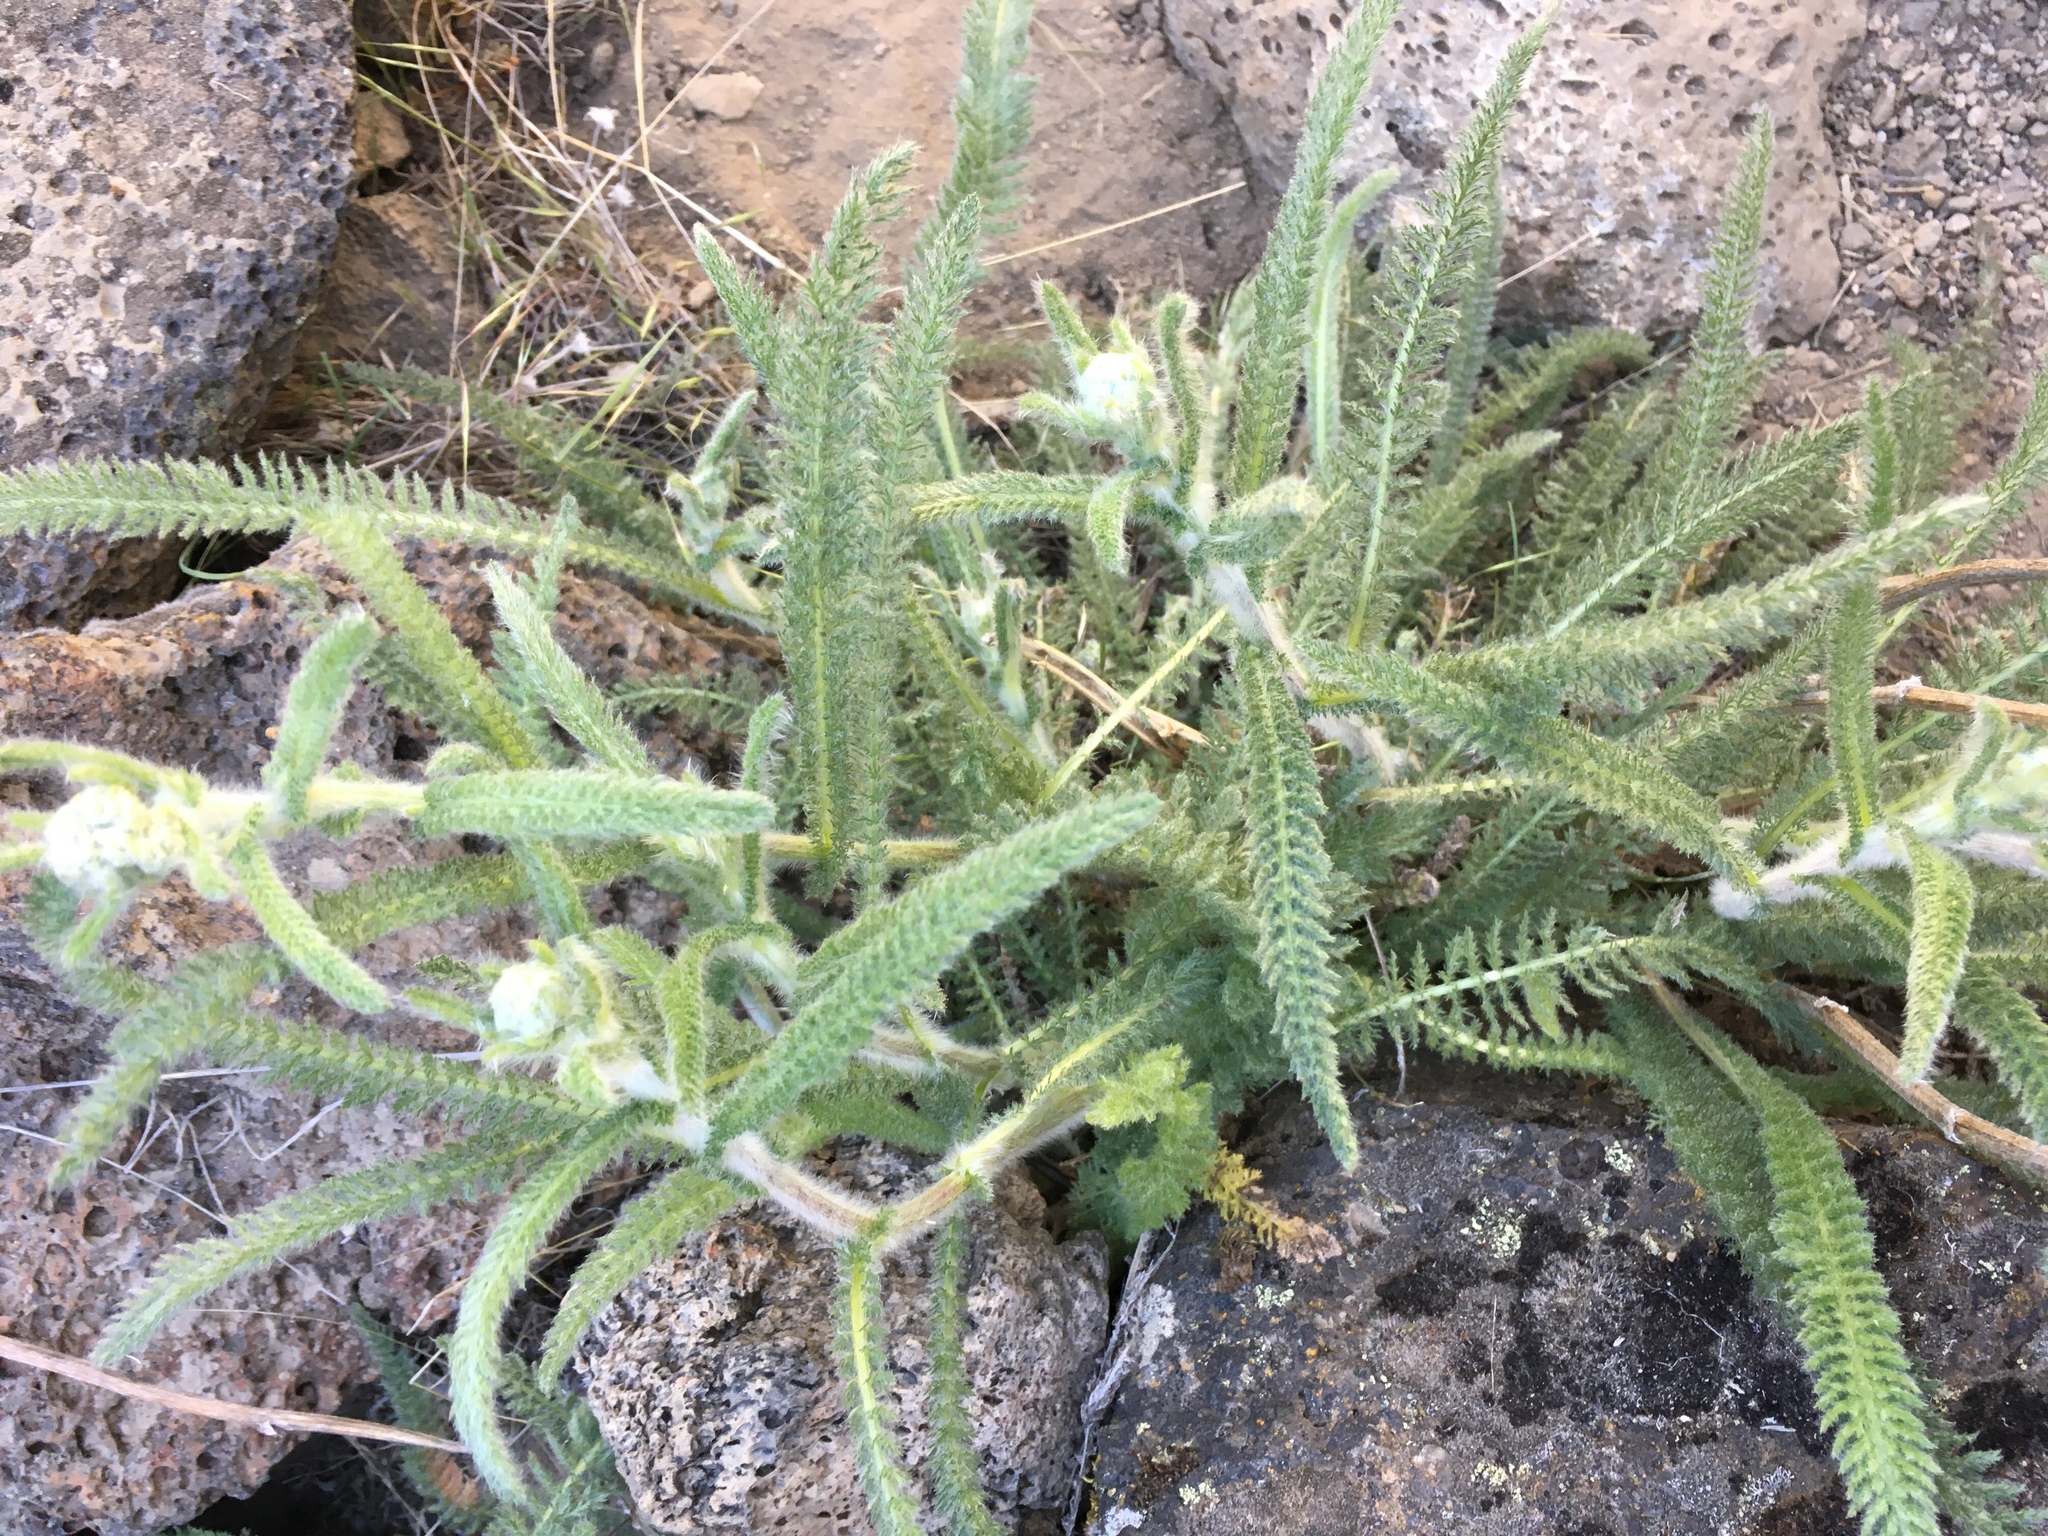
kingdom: Plantae
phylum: Tracheophyta
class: Magnoliopsida
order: Asterales
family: Asteraceae
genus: Achillea
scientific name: Achillea millefolium
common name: Yarrow
